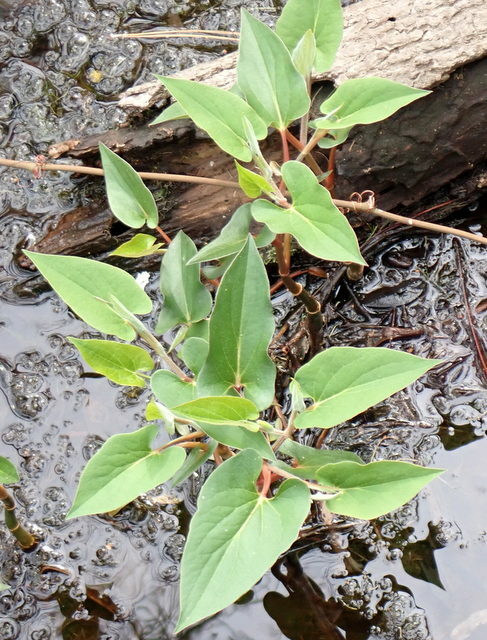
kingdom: Plantae
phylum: Tracheophyta
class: Magnoliopsida
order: Piperales
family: Saururaceae
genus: Saururus
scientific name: Saururus cernuus
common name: Lizard's-tail
